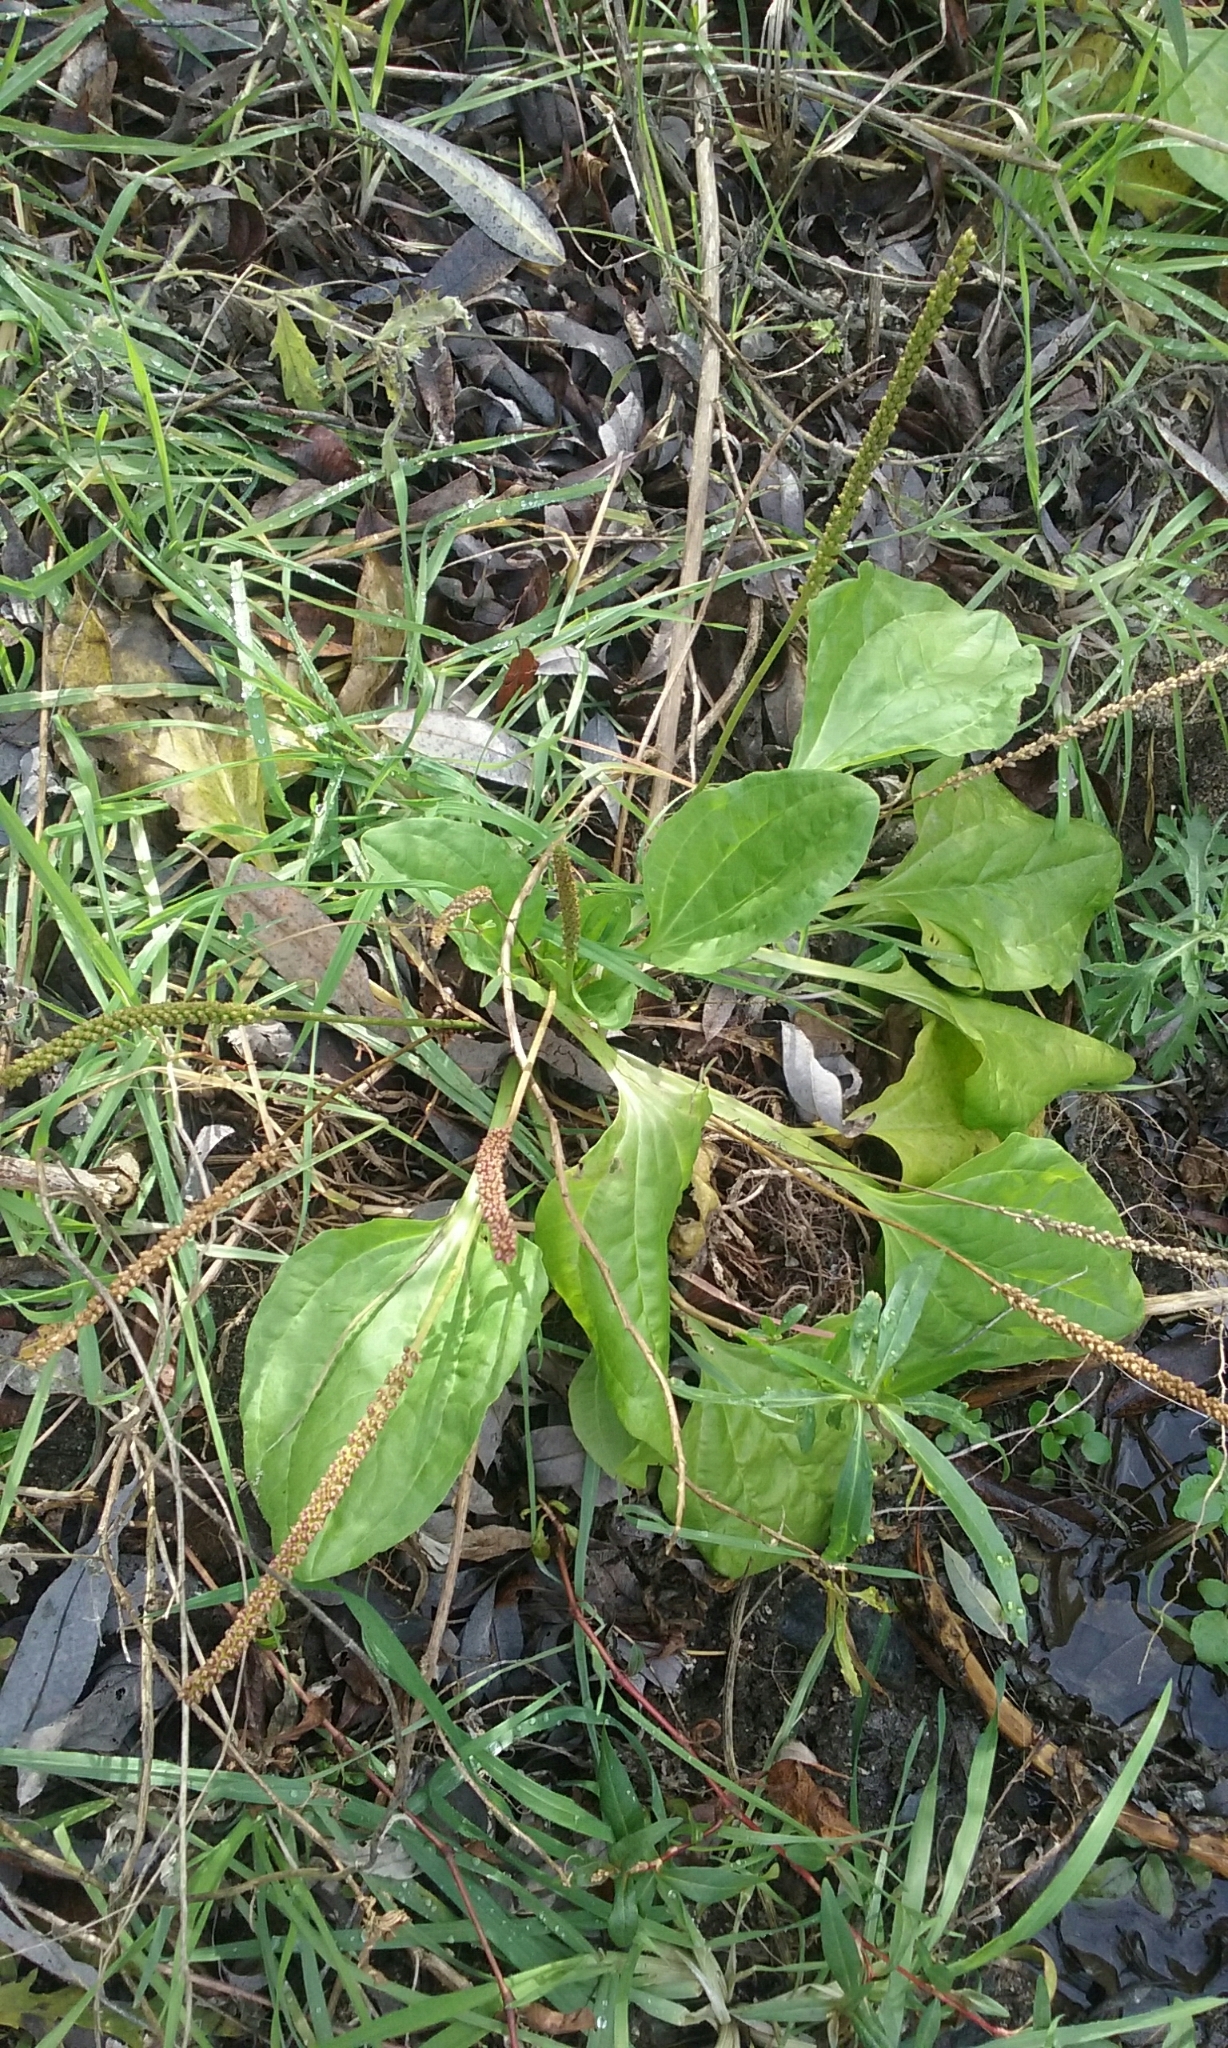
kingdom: Plantae
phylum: Tracheophyta
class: Magnoliopsida
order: Lamiales
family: Plantaginaceae
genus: Plantago
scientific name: Plantago major
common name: Common plantain
